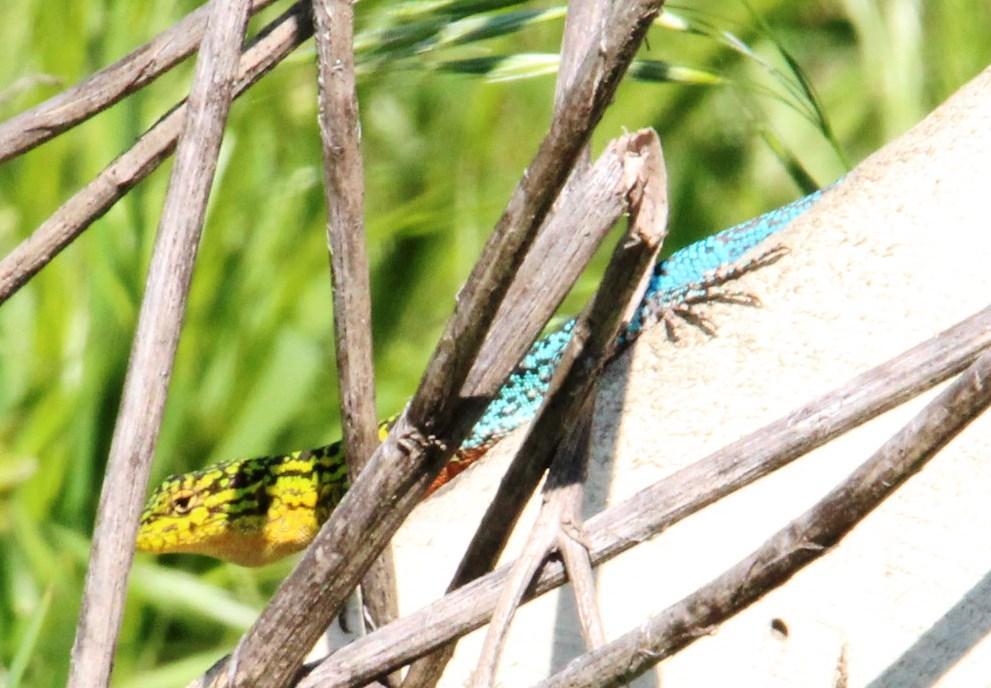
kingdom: Animalia
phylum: Chordata
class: Squamata
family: Liolaemidae
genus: Liolaemus
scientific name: Liolaemus tenuis
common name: Thin tree iguana
